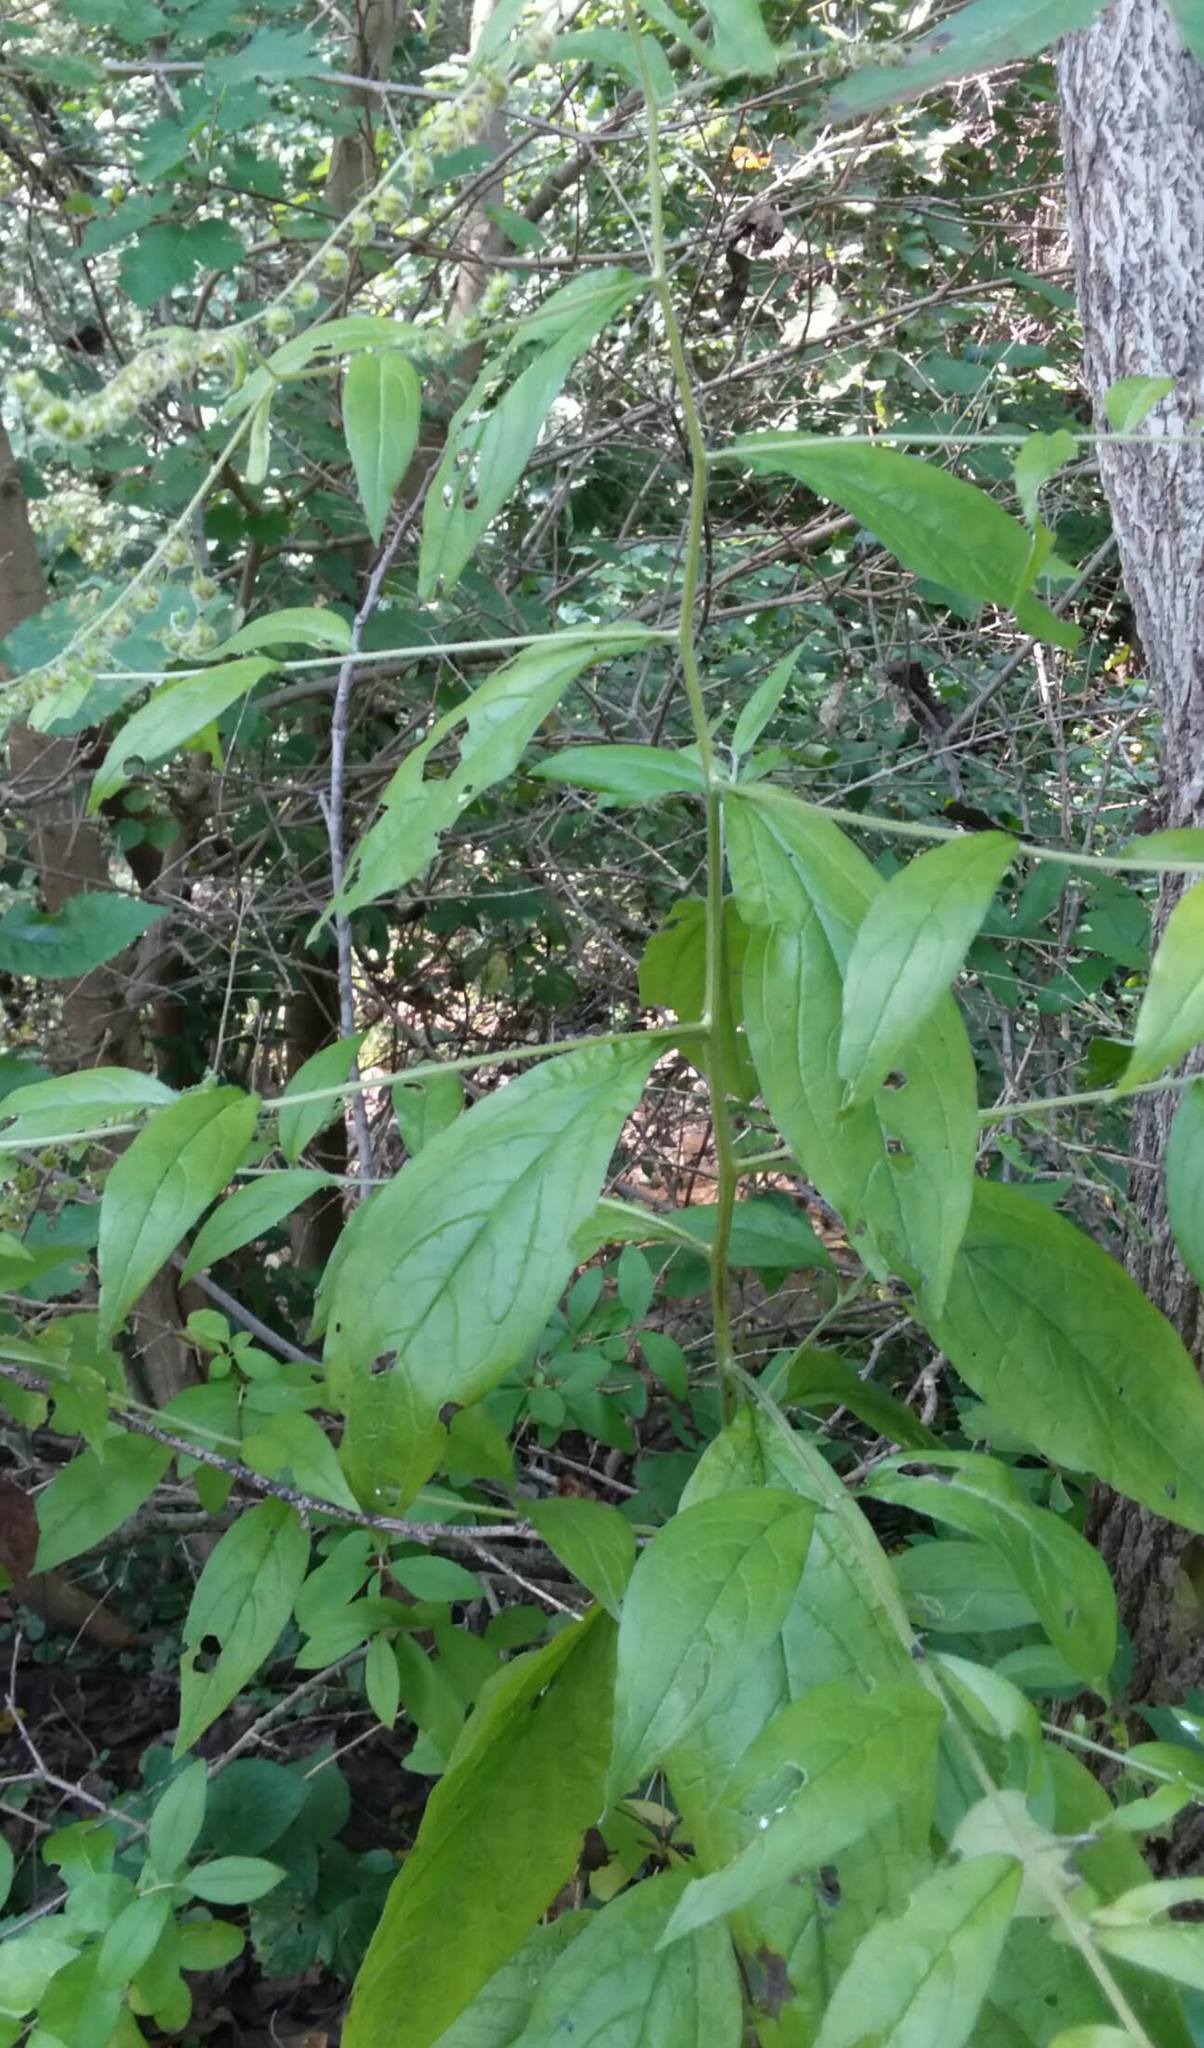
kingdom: Plantae
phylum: Tracheophyta
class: Magnoliopsida
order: Boraginales
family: Boraginaceae
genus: Hackelia
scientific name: Hackelia virginiana
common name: Beggar's-lice
